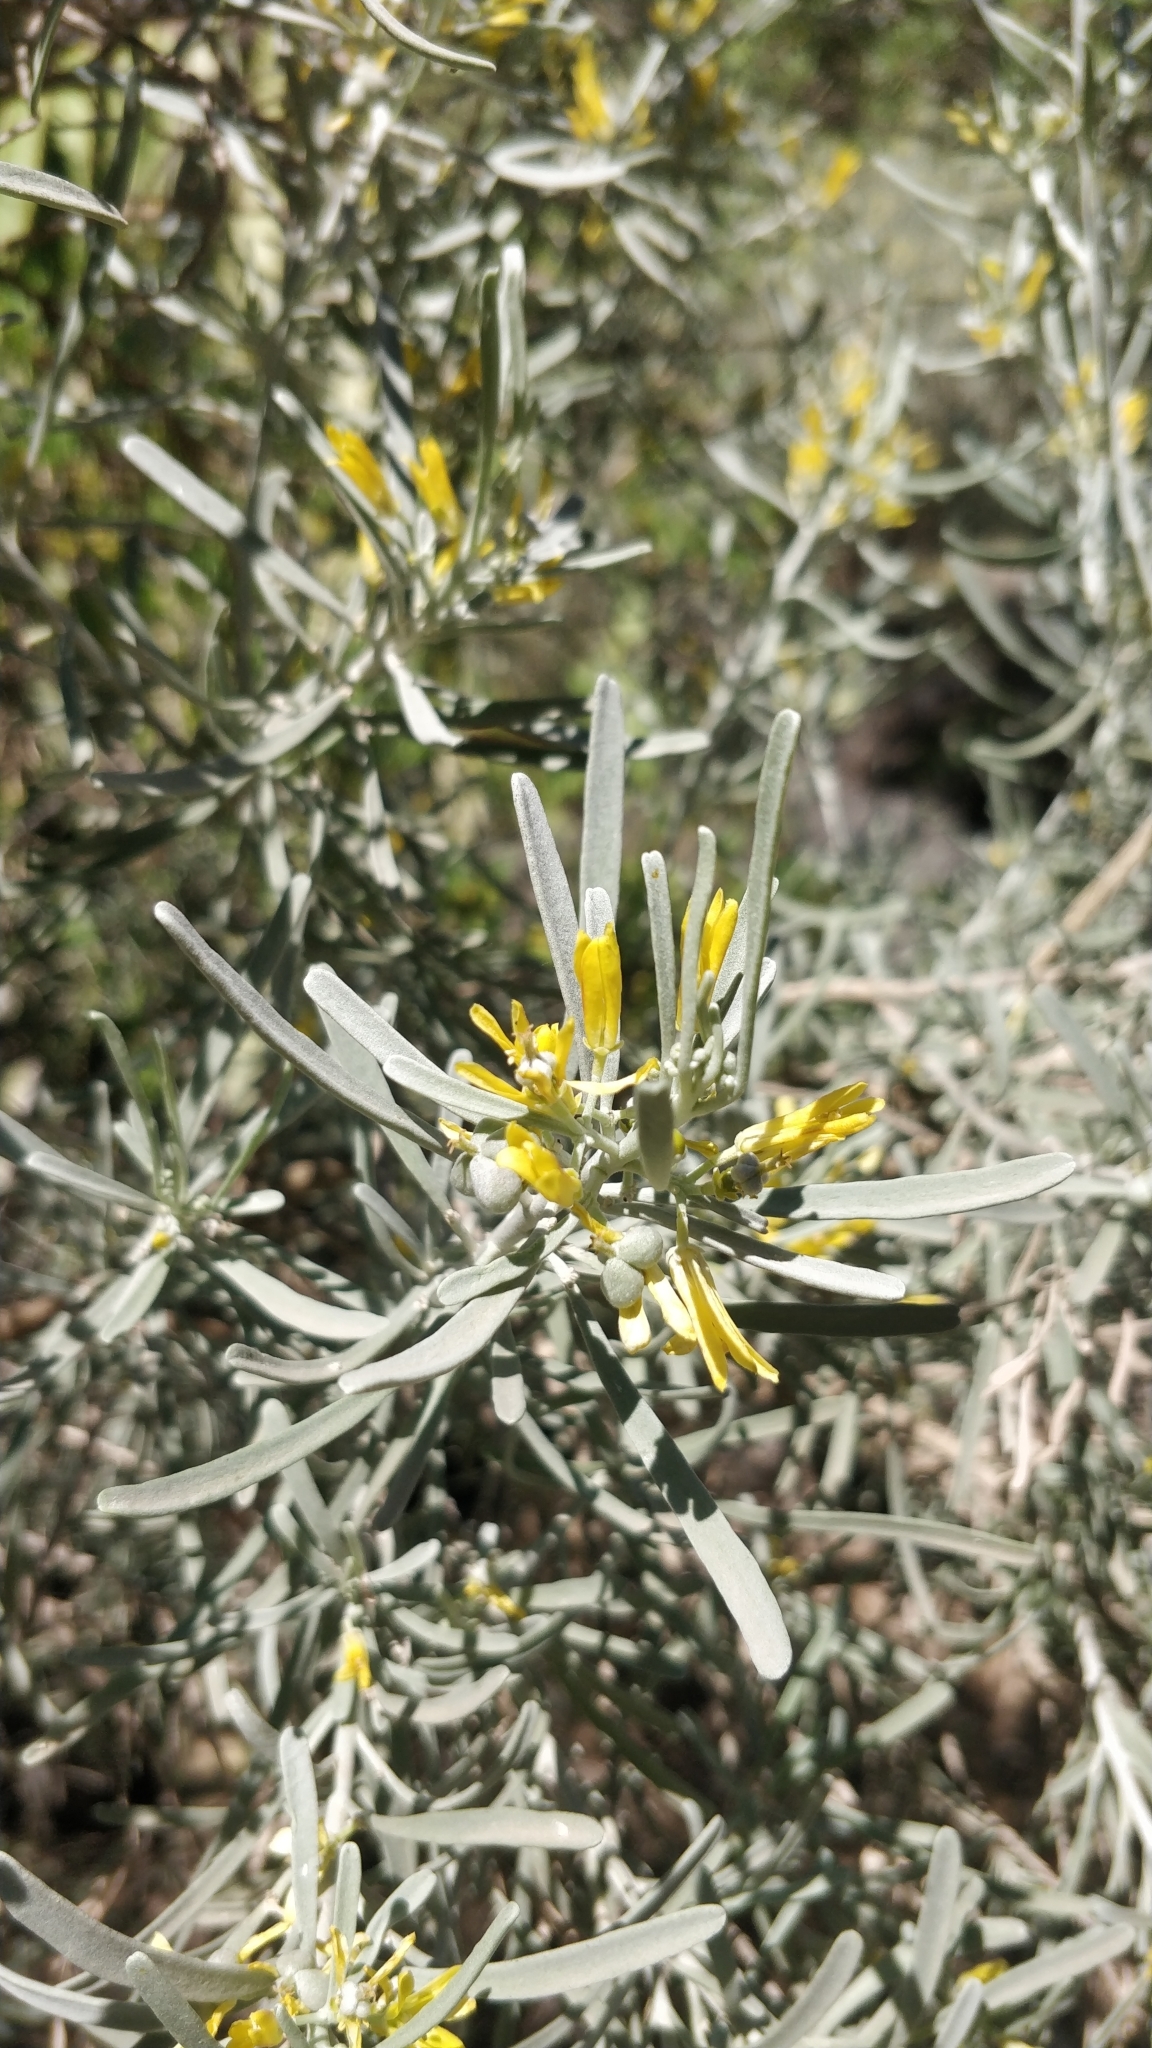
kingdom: Plantae
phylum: Tracheophyta
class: Magnoliopsida
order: Sapindales
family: Rutaceae
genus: Cneorum
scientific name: Cneorum pulverulentum
